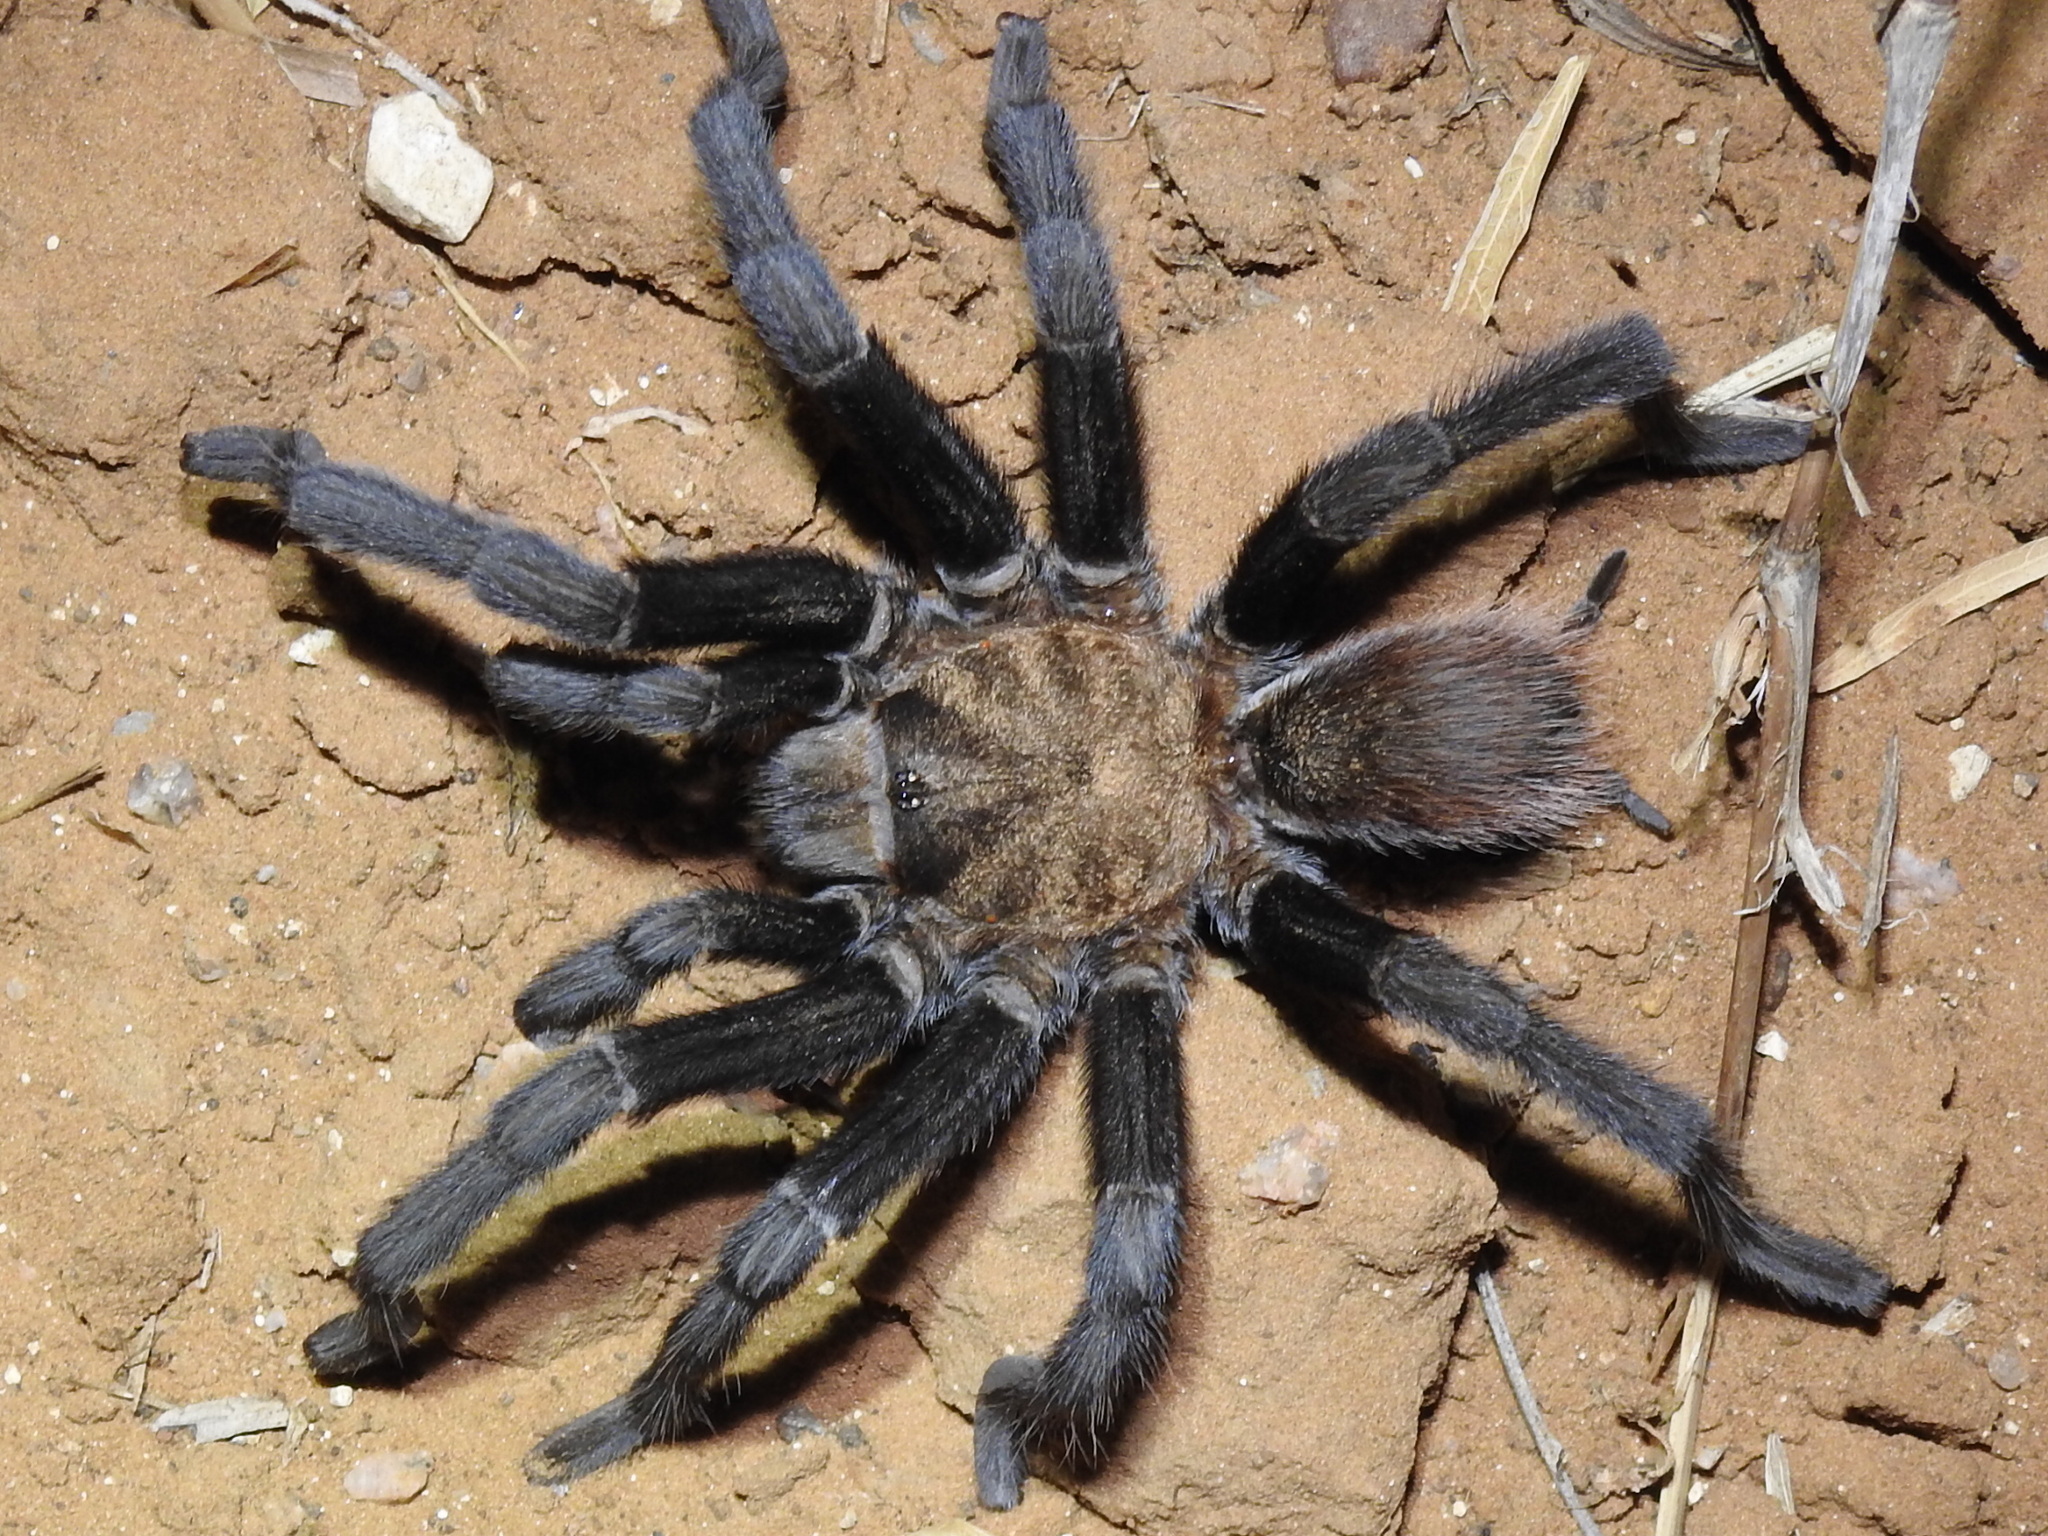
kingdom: Animalia
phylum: Arthropoda
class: Arachnida
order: Araneae
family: Theraphosidae
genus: Aphonopelma
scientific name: Aphonopelma anax
